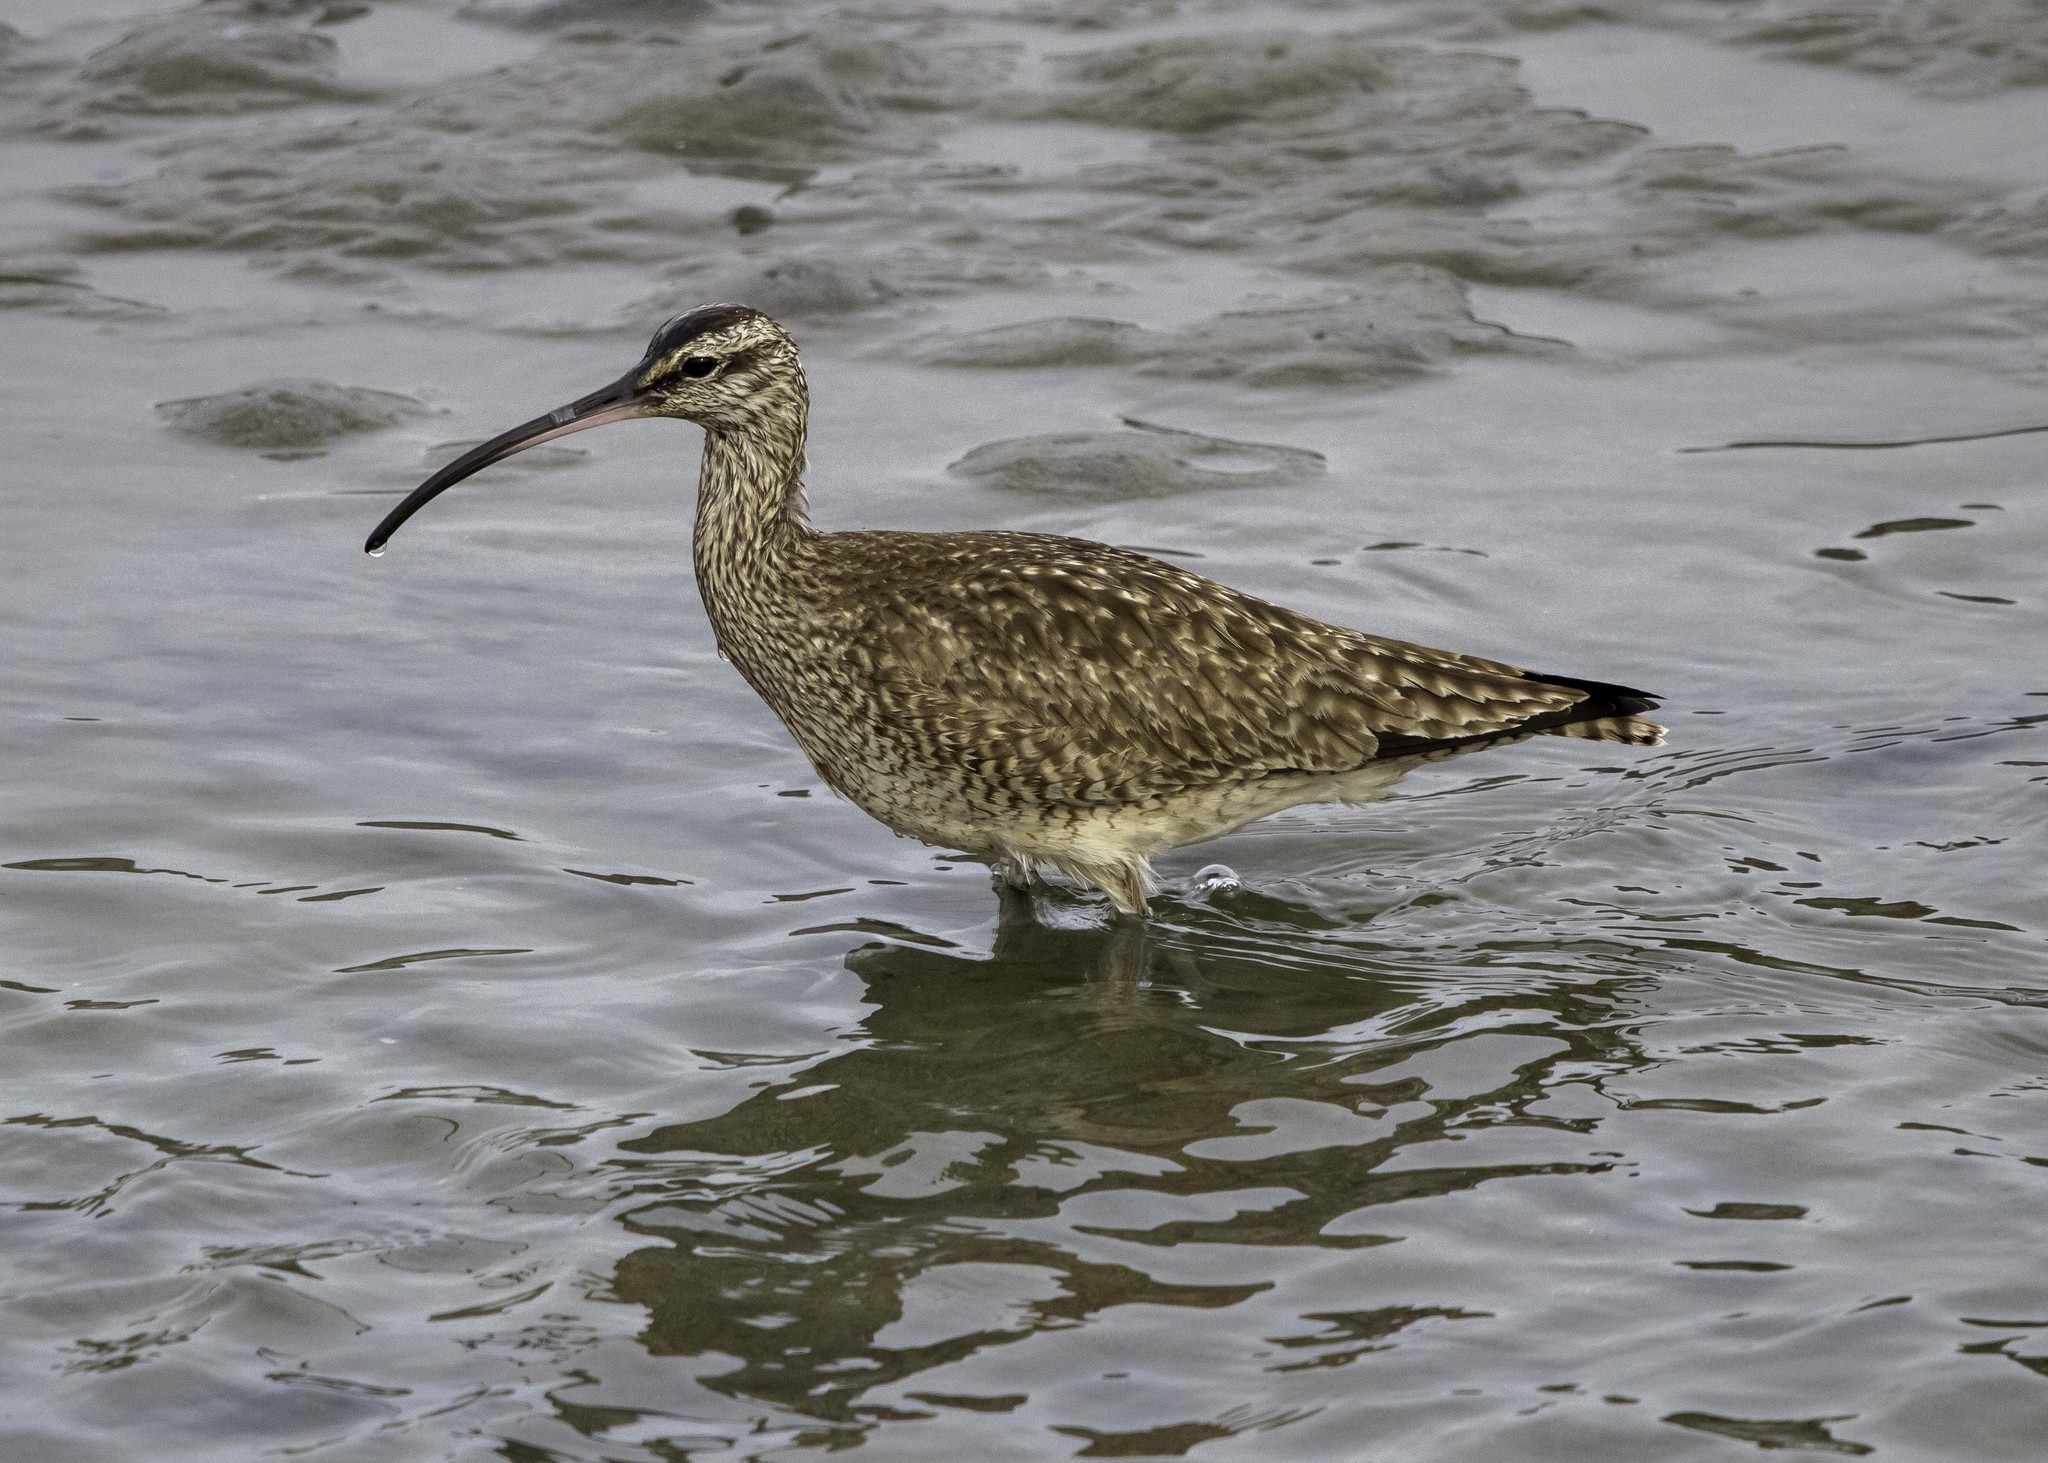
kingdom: Animalia
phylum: Chordata
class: Aves
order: Charadriiformes
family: Scolopacidae
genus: Numenius
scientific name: Numenius phaeopus
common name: Whimbrel
